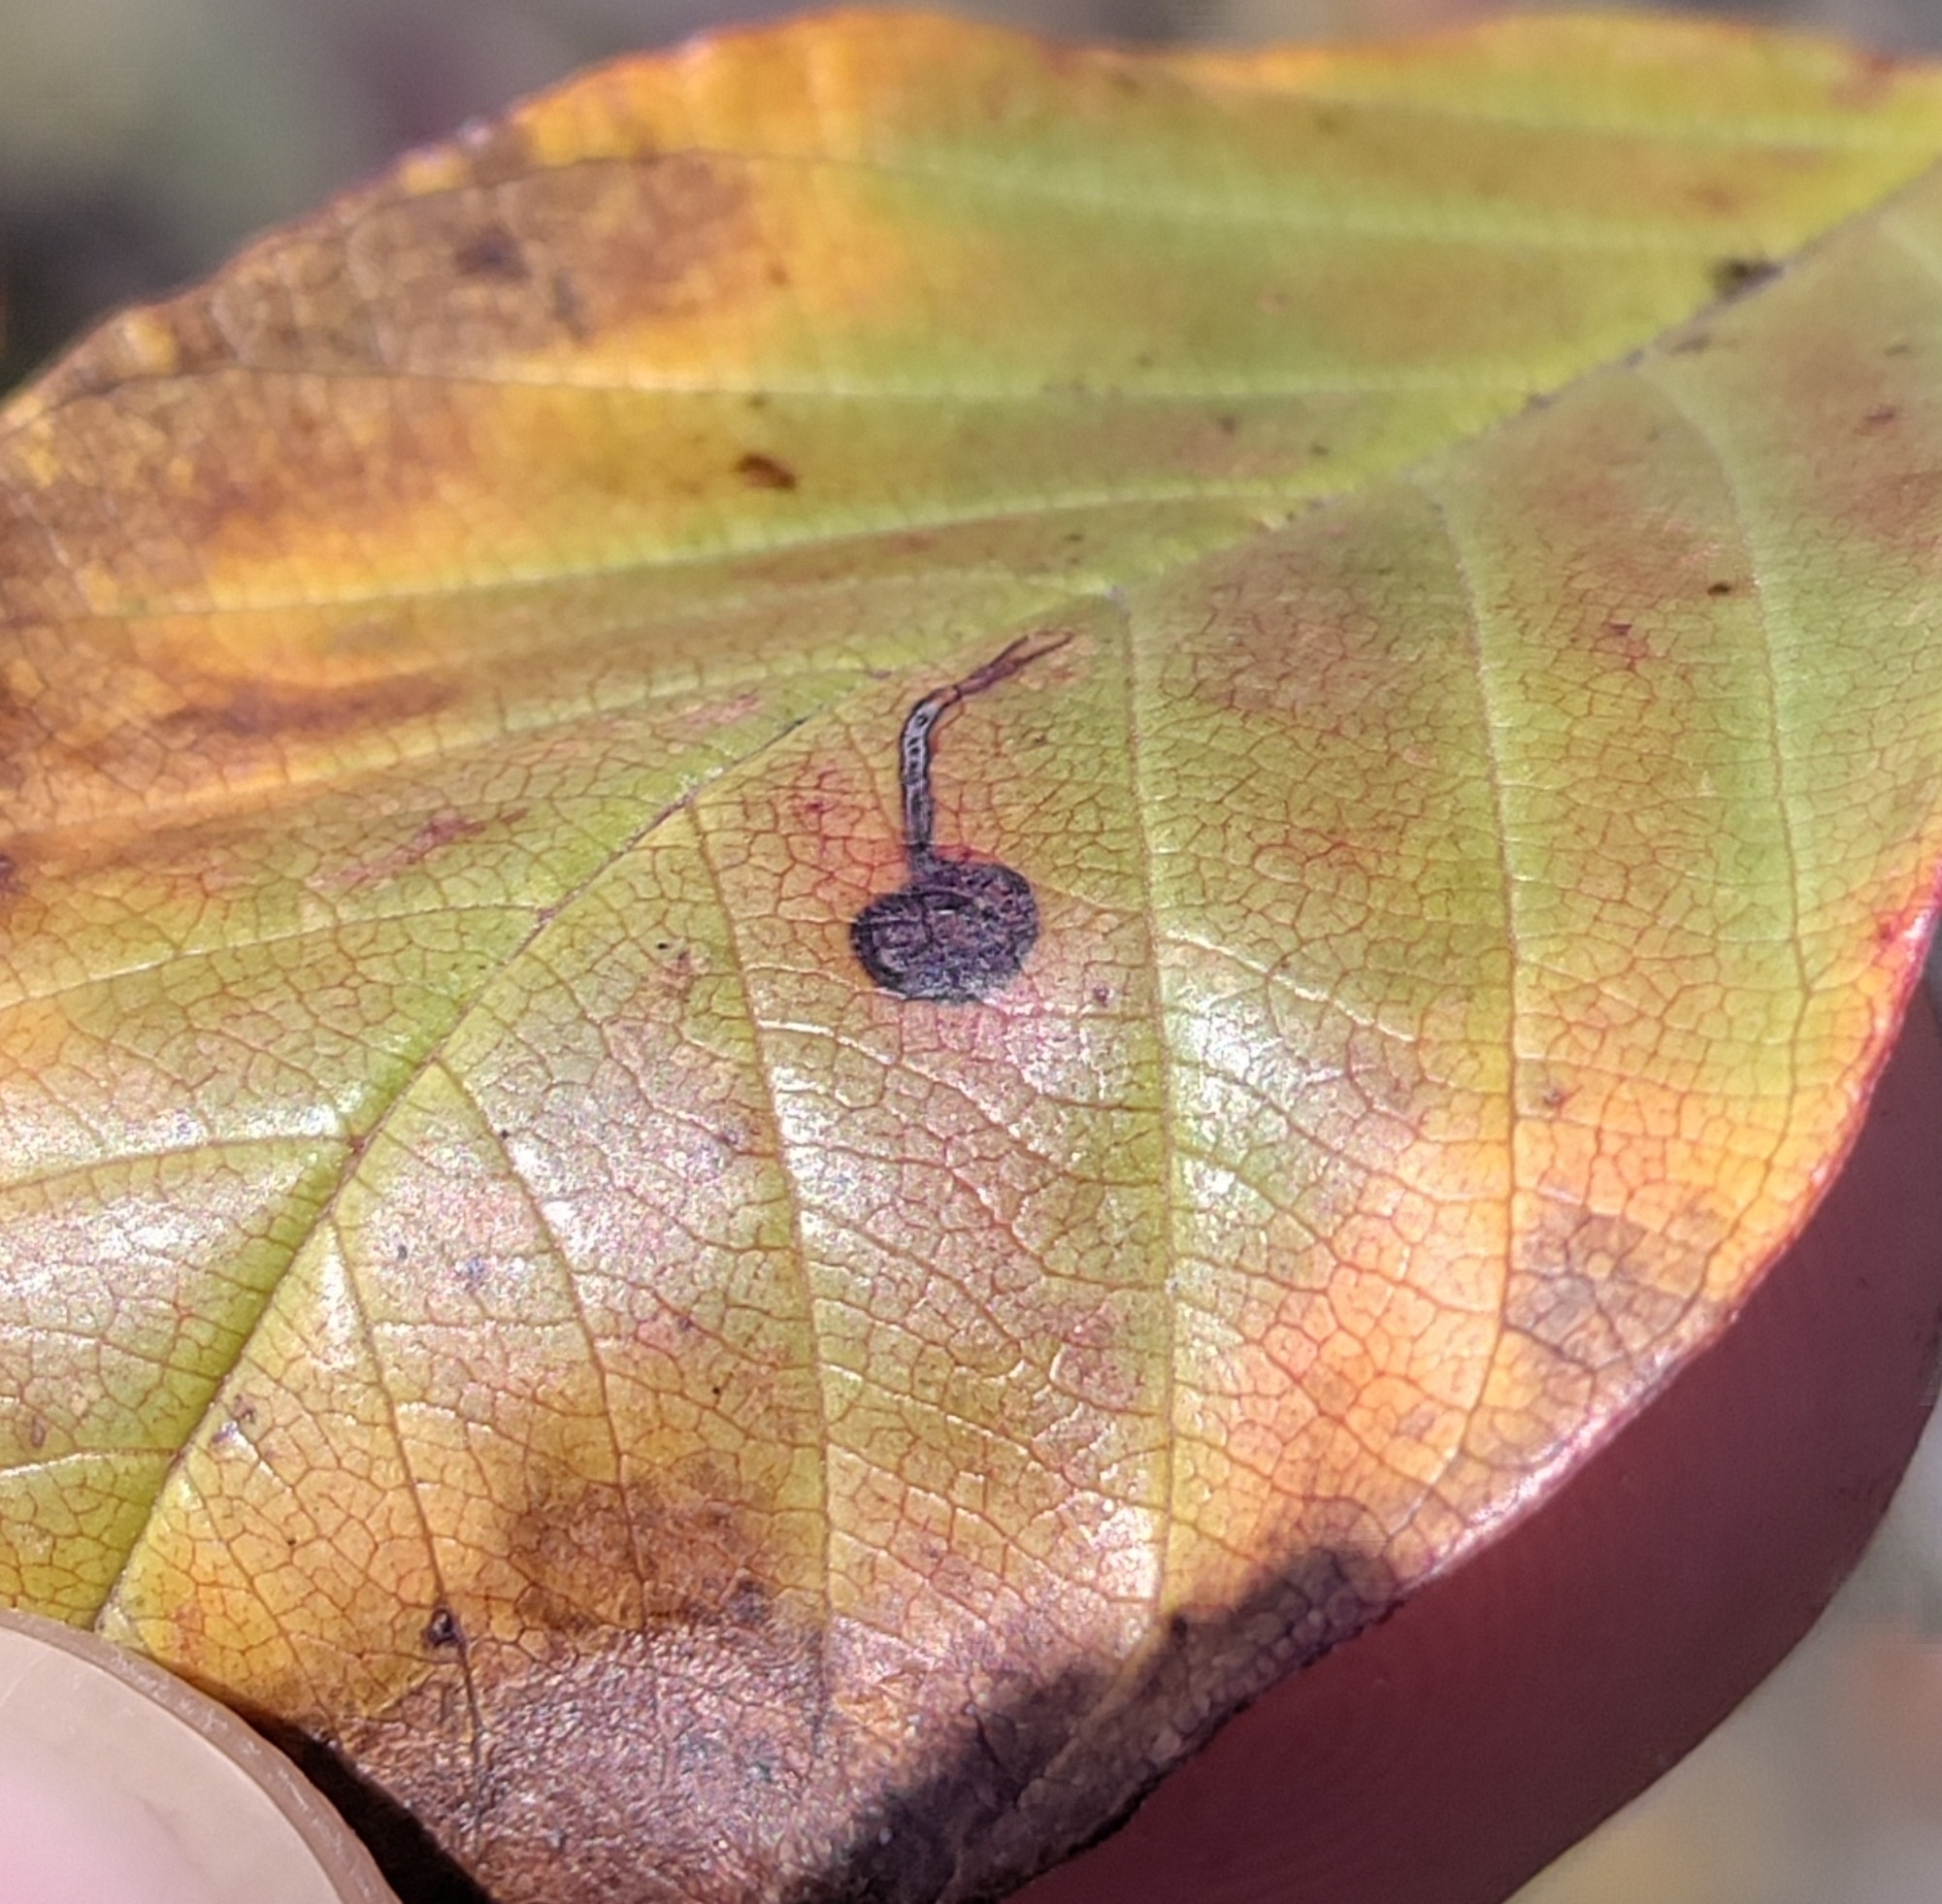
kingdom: Animalia
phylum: Arthropoda
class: Insecta
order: Lepidoptera
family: Bucculatricidae
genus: Bucculatrix
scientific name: Bucculatrix frangutella
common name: Buckthorn bent-wing
